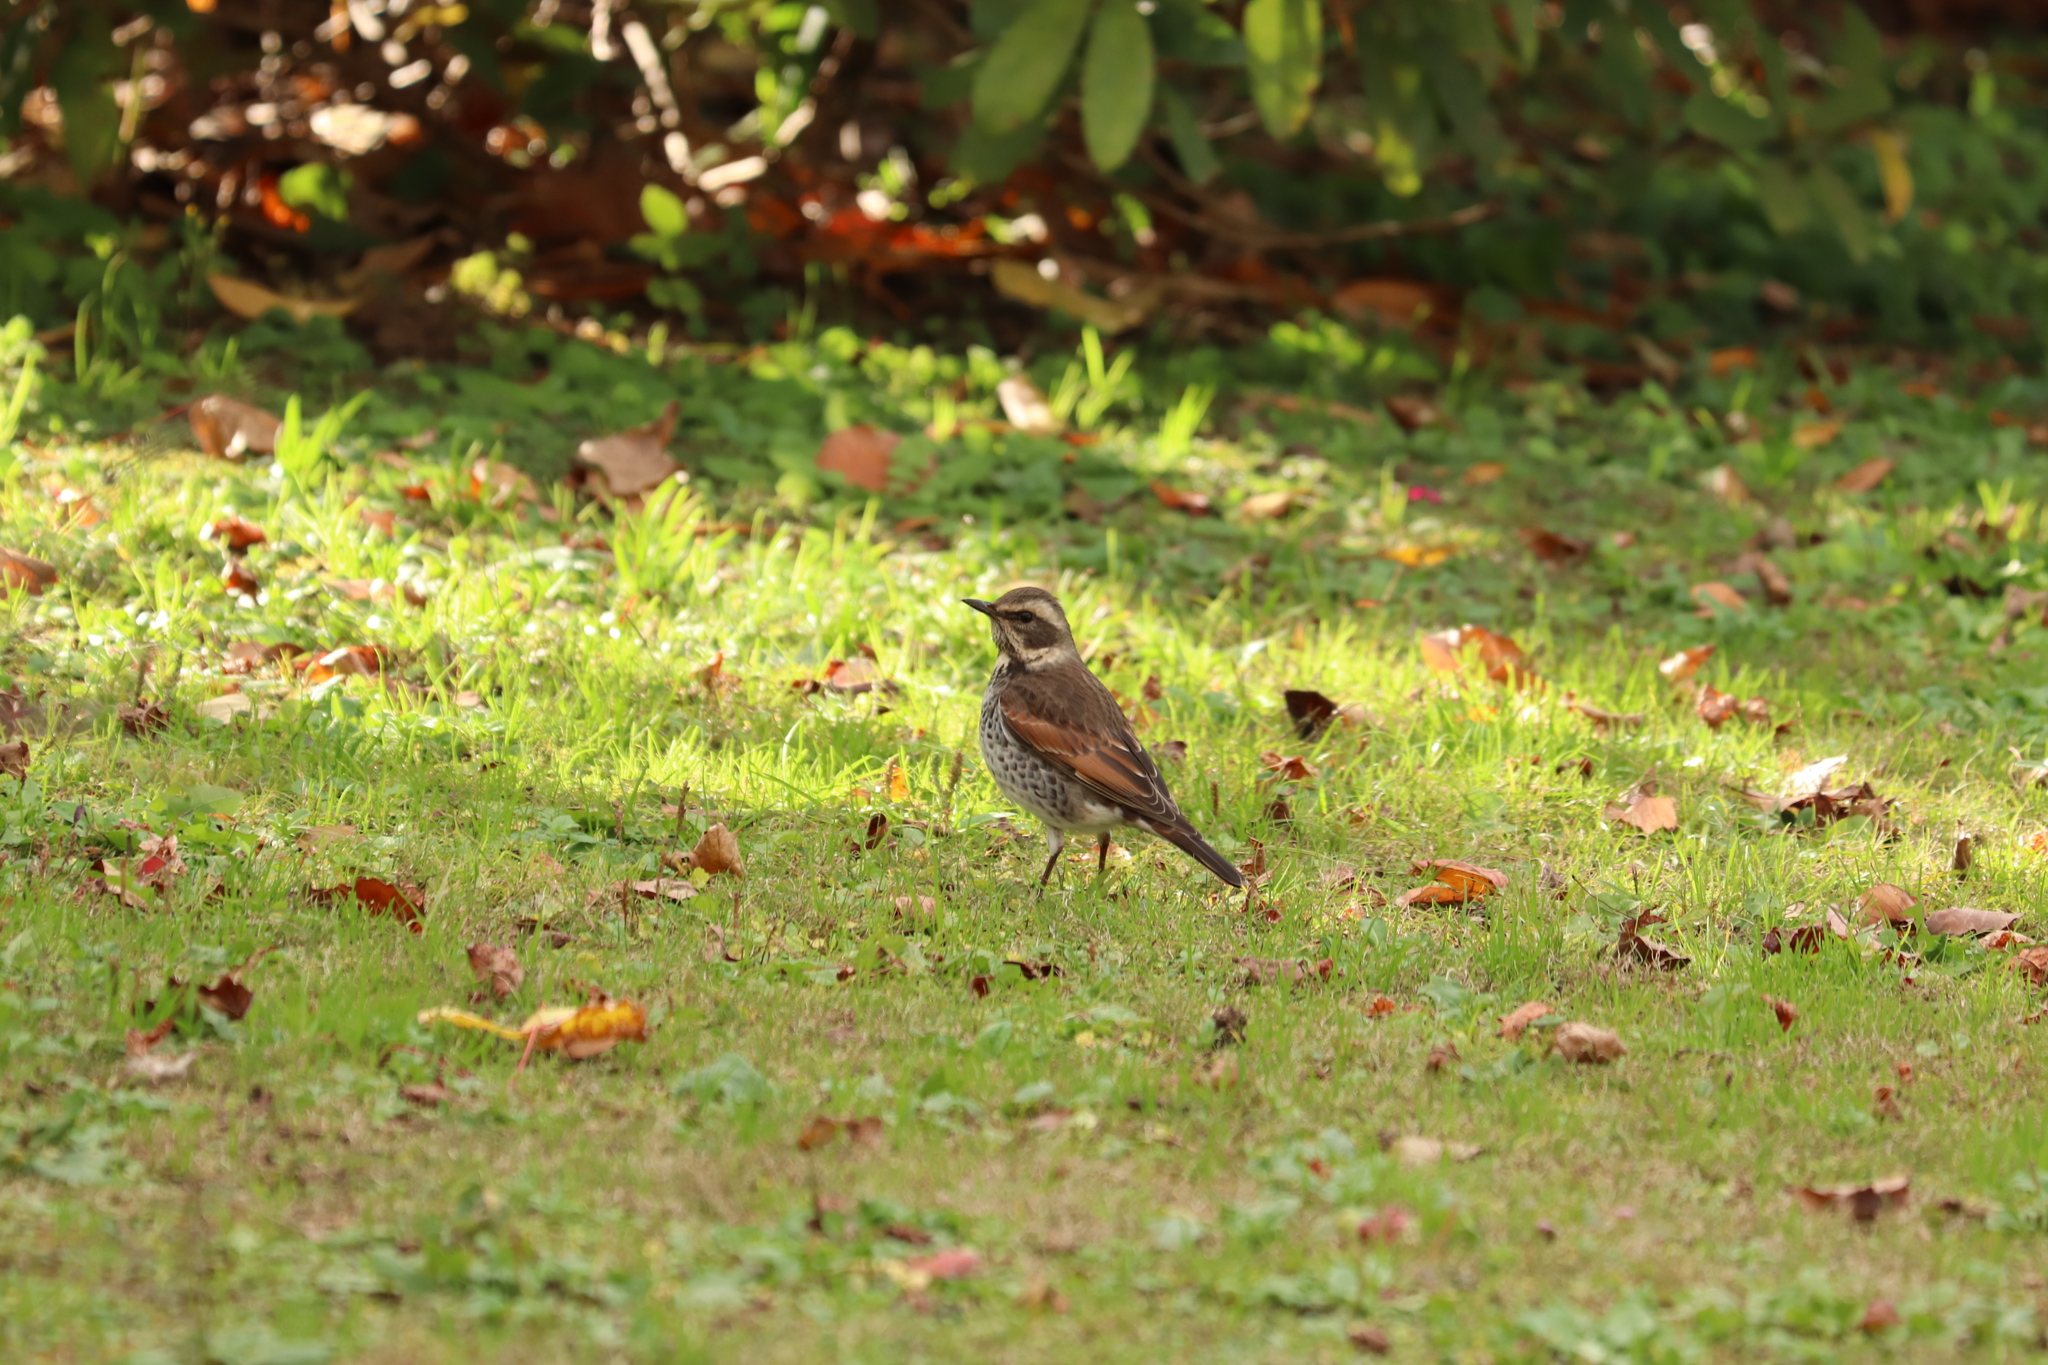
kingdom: Animalia
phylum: Chordata
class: Aves
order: Passeriformes
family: Turdidae
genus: Turdus
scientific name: Turdus eunomus
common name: Dusky thrush
